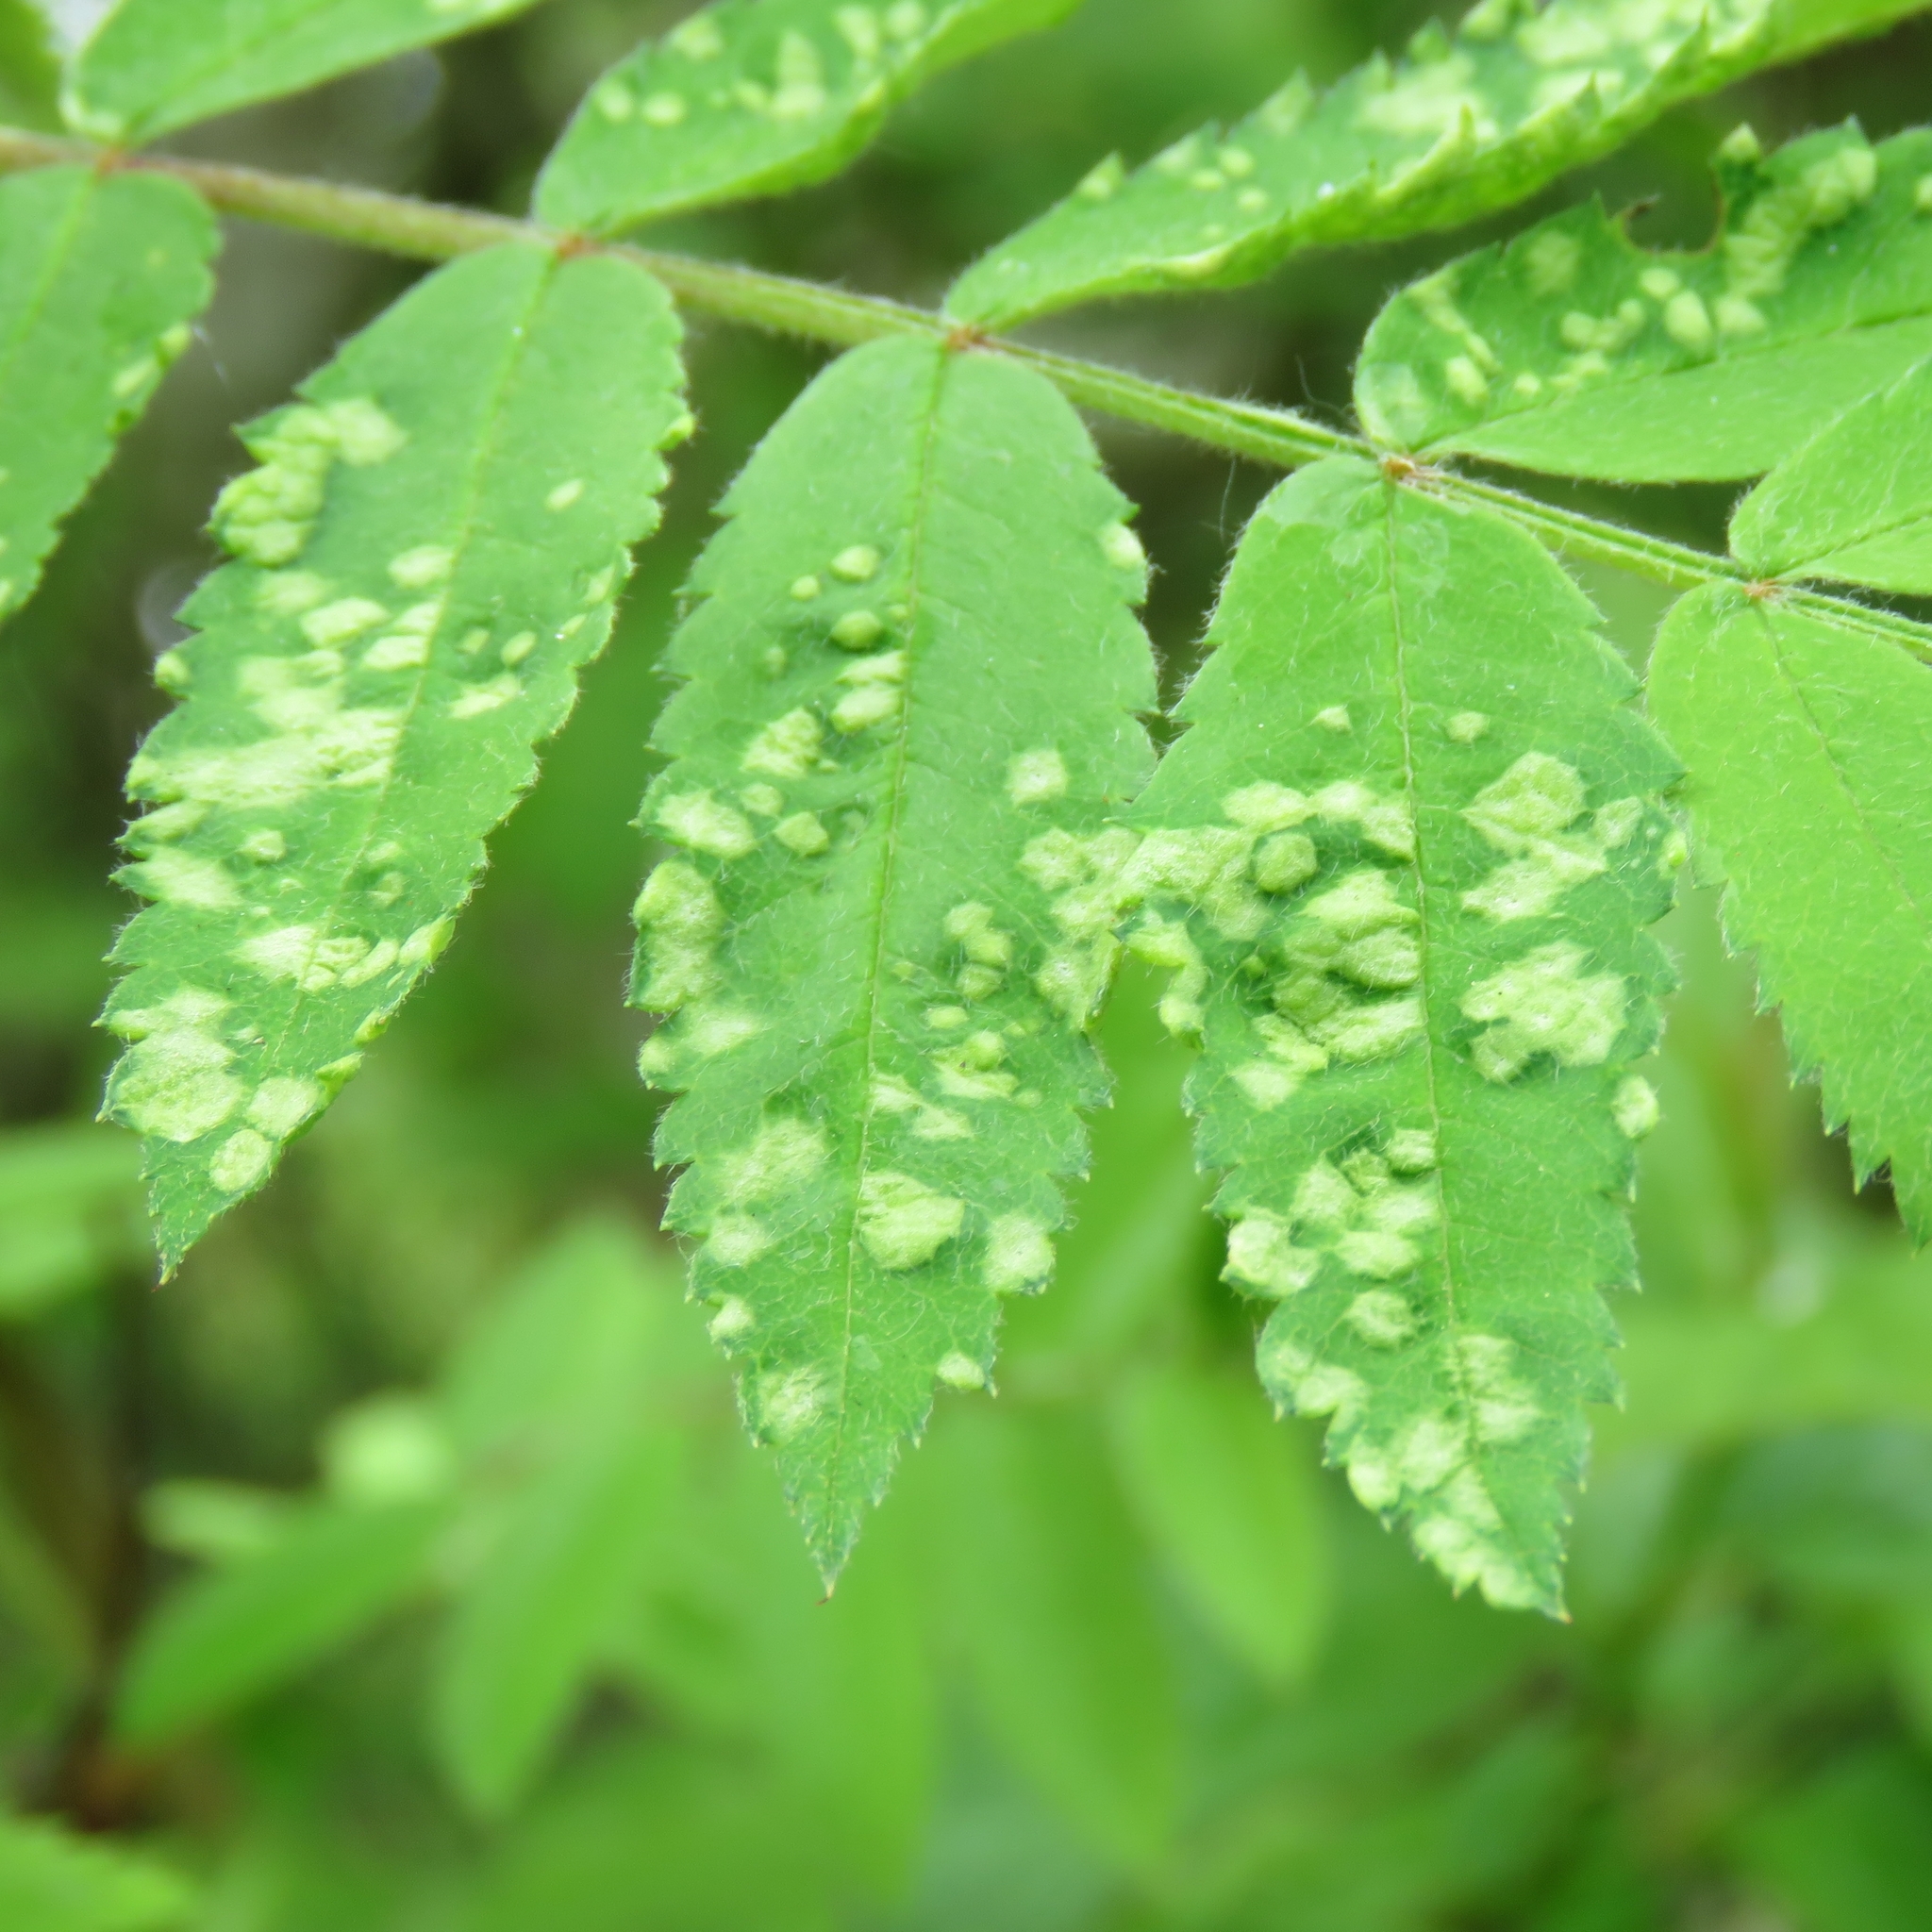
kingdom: Animalia
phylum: Arthropoda
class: Arachnida
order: Trombidiformes
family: Eriophyidae
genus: Eriophyes
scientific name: Eriophyes sorbi
